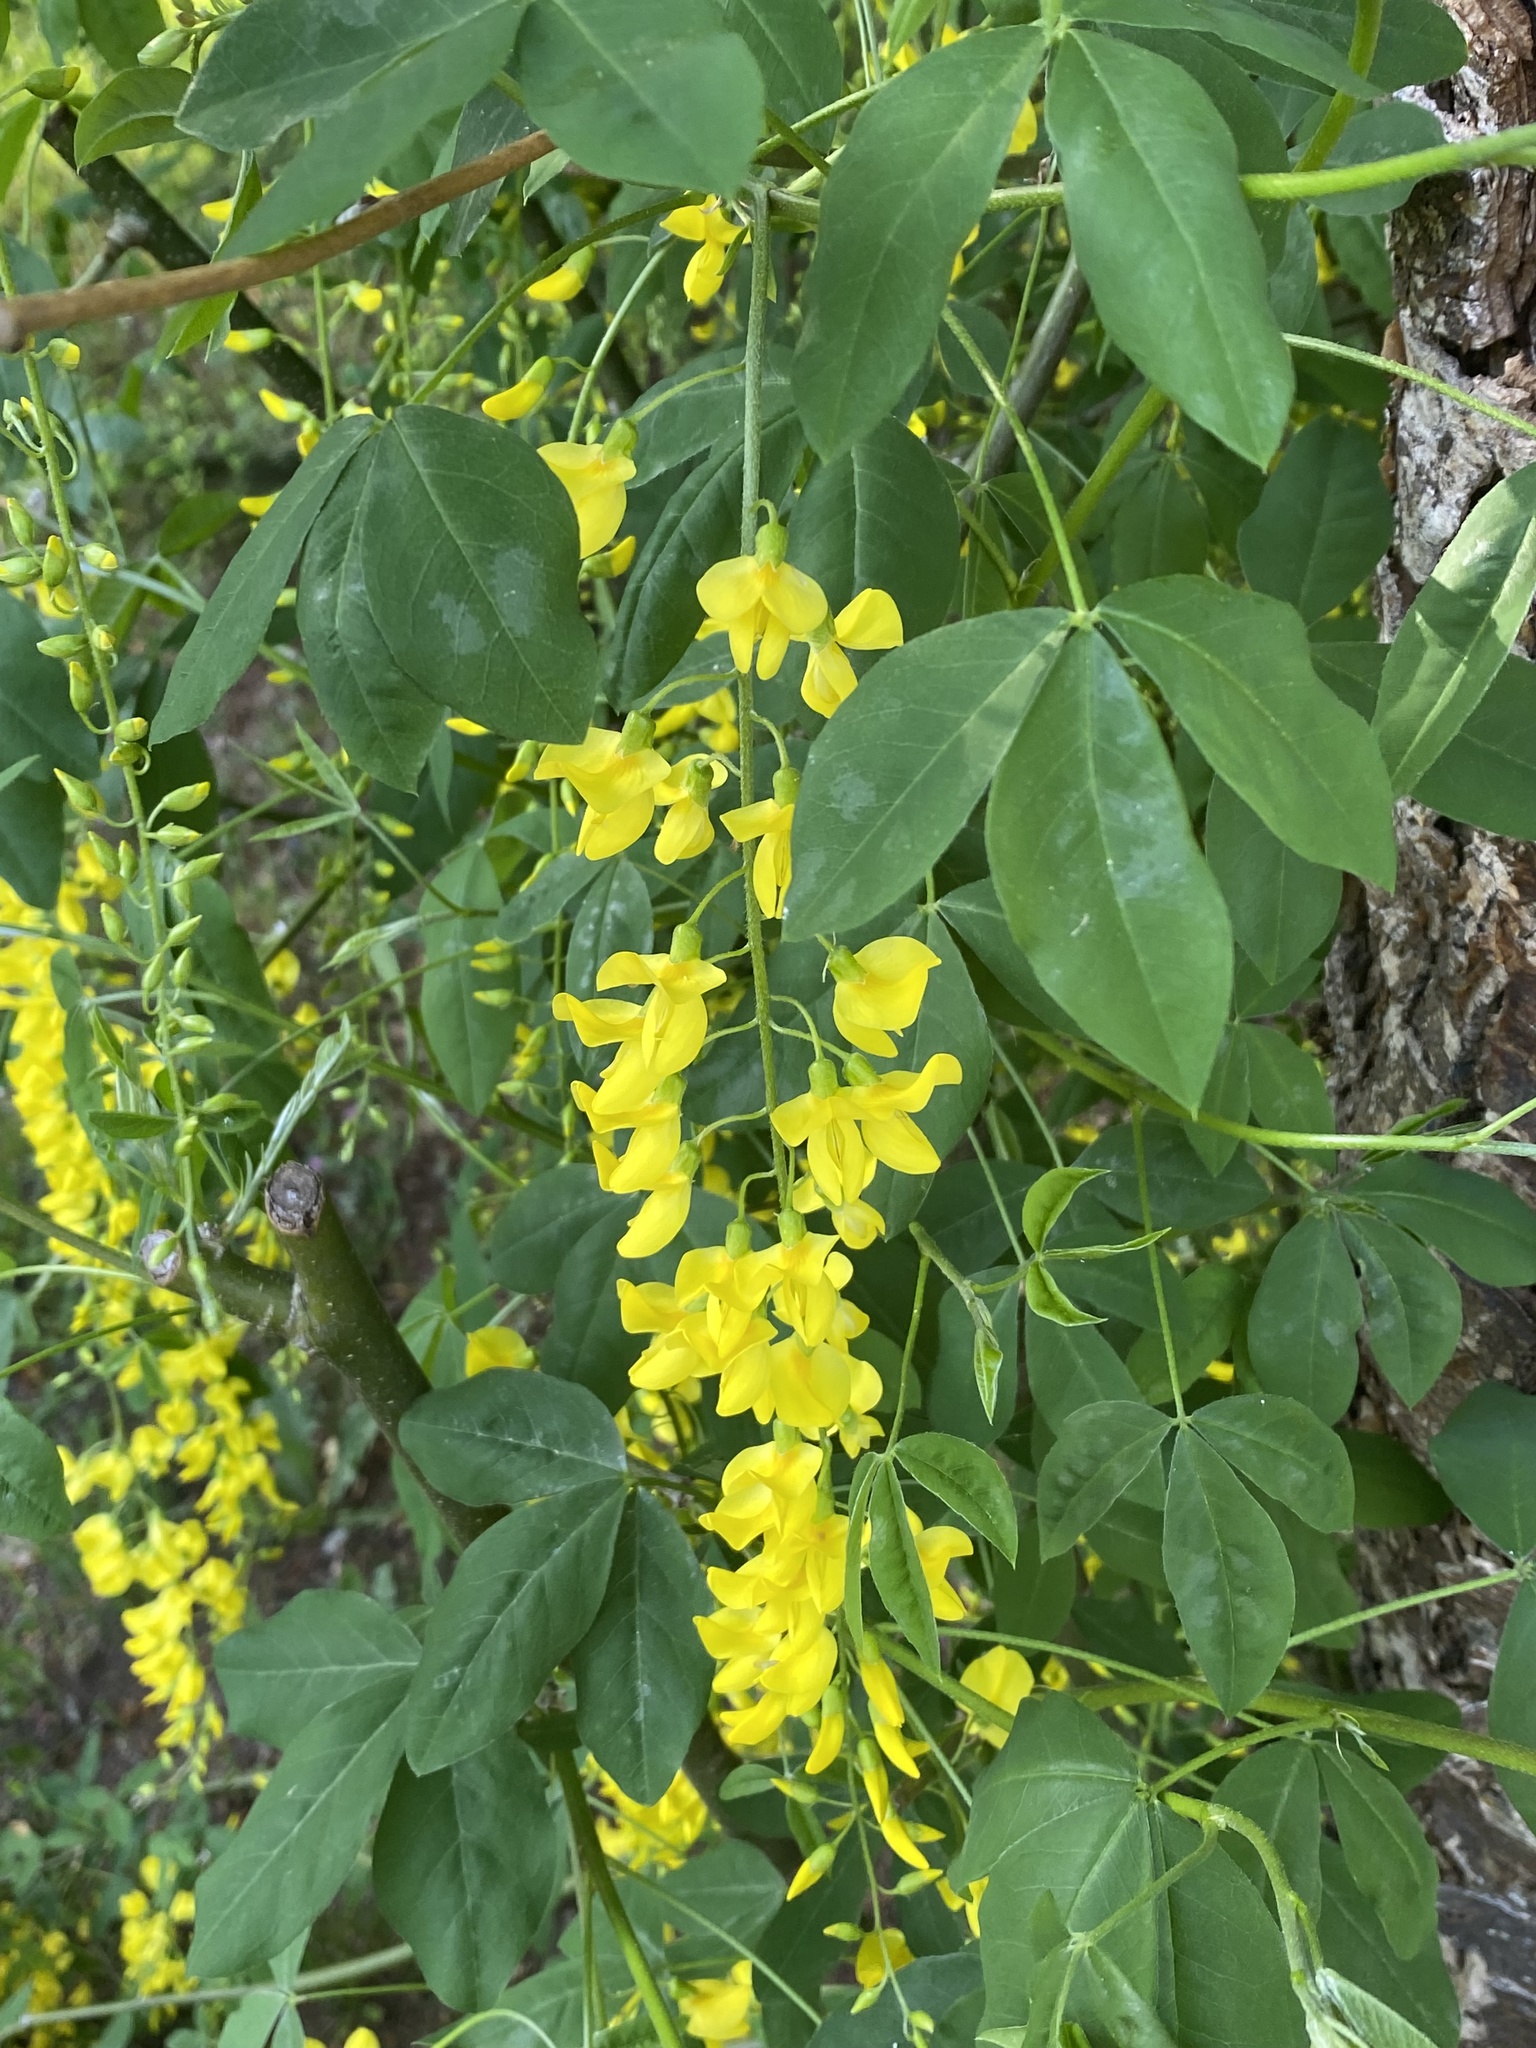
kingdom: Plantae
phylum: Tracheophyta
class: Magnoliopsida
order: Fabales
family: Fabaceae
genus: Laburnum
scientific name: Laburnum alpinum
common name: Scottish laburnum
